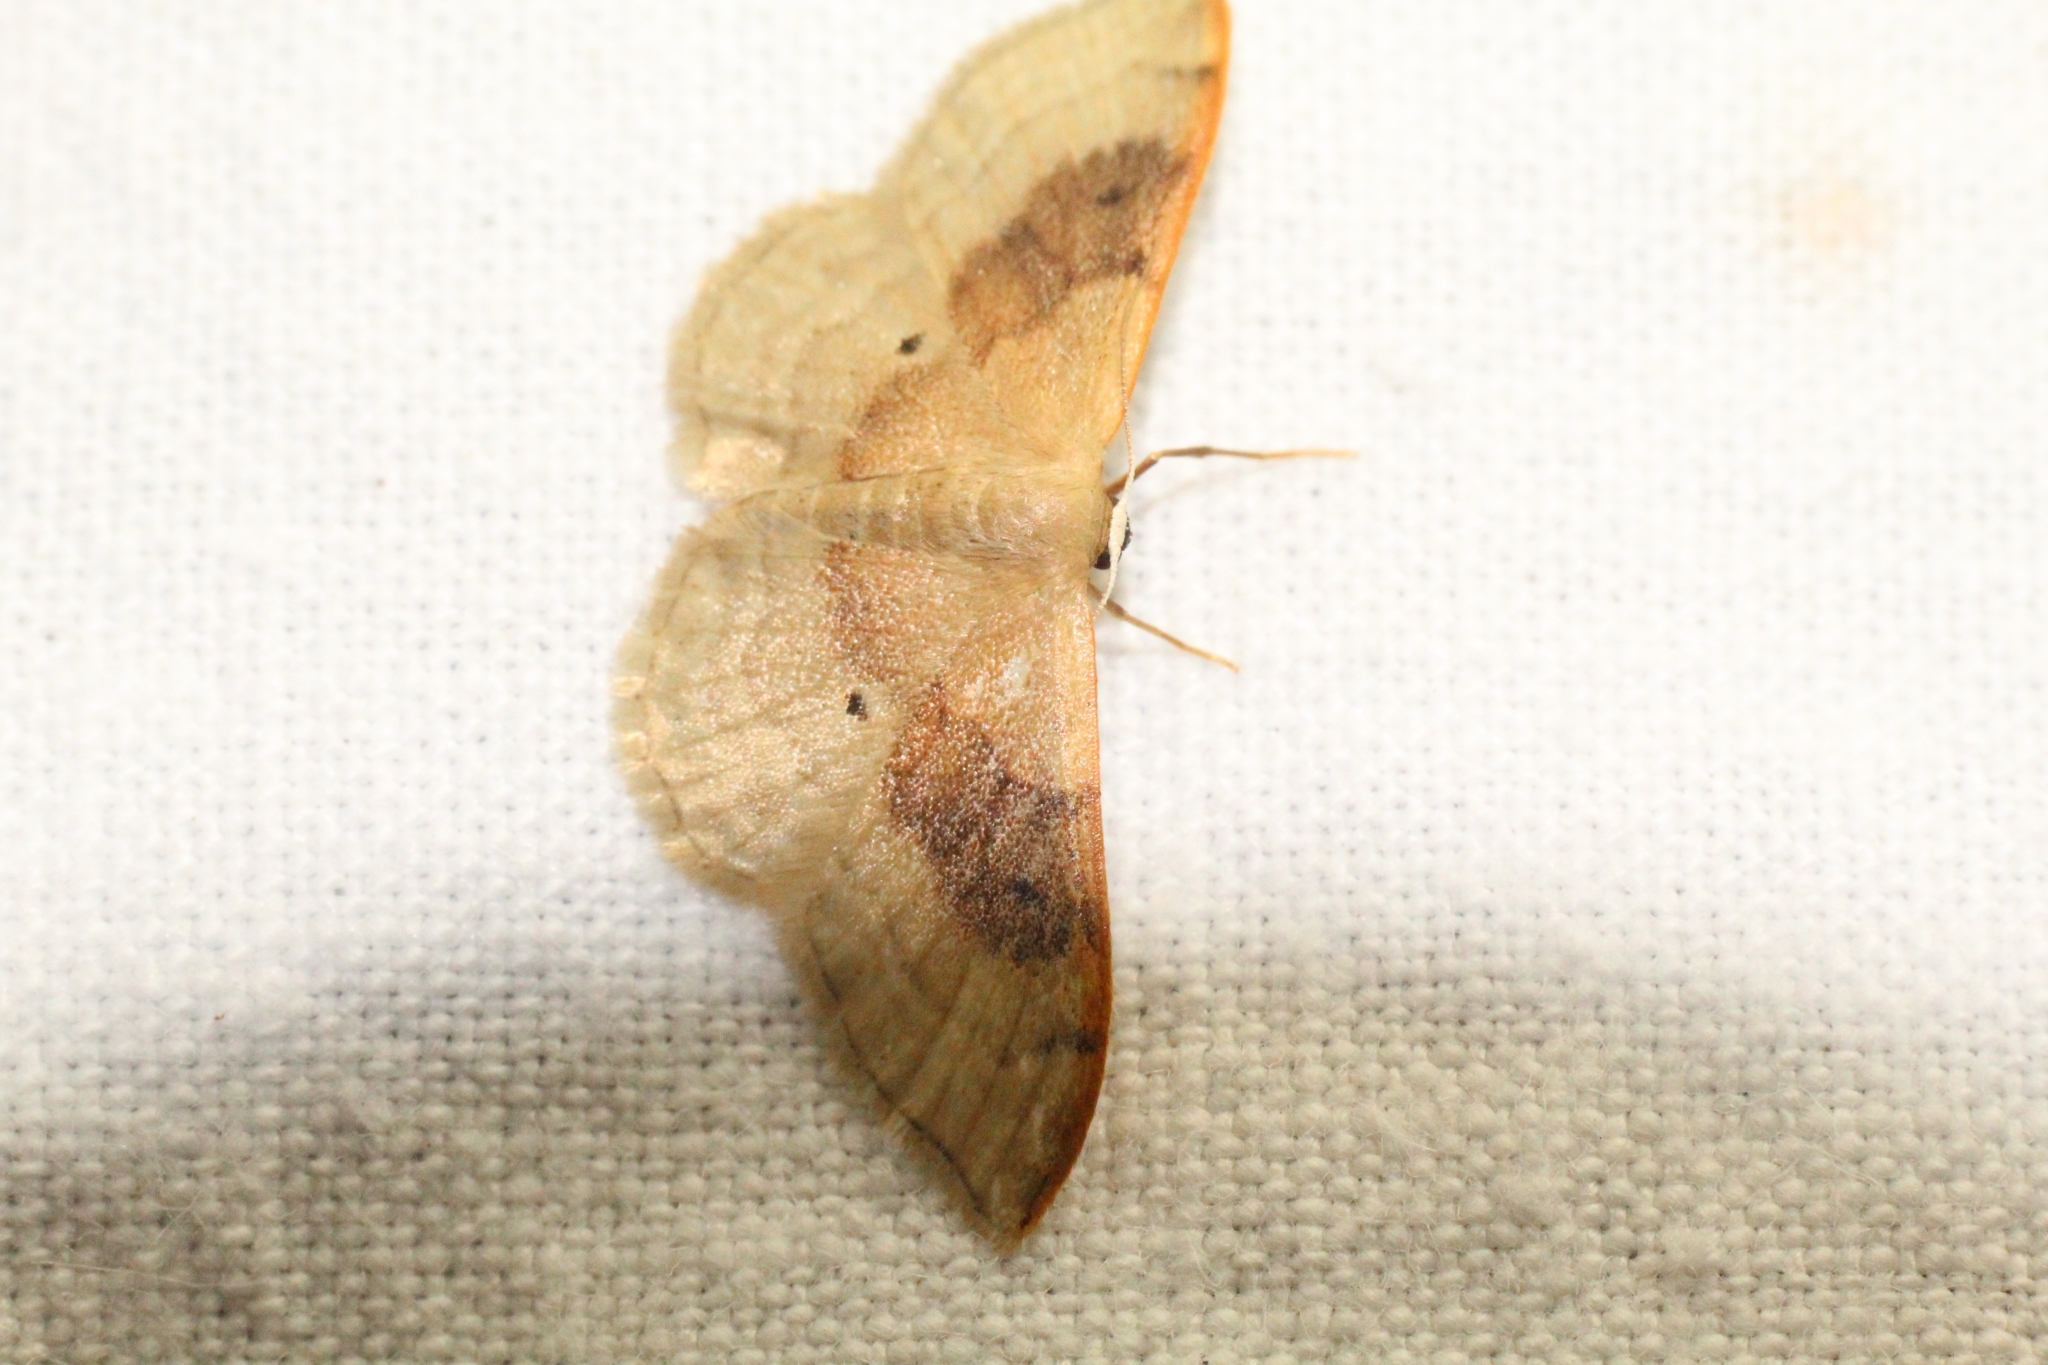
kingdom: Animalia
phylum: Arthropoda
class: Insecta
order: Lepidoptera
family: Geometridae
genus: Idaea
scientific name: Idaea degeneraria
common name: Portland ribbon wave
